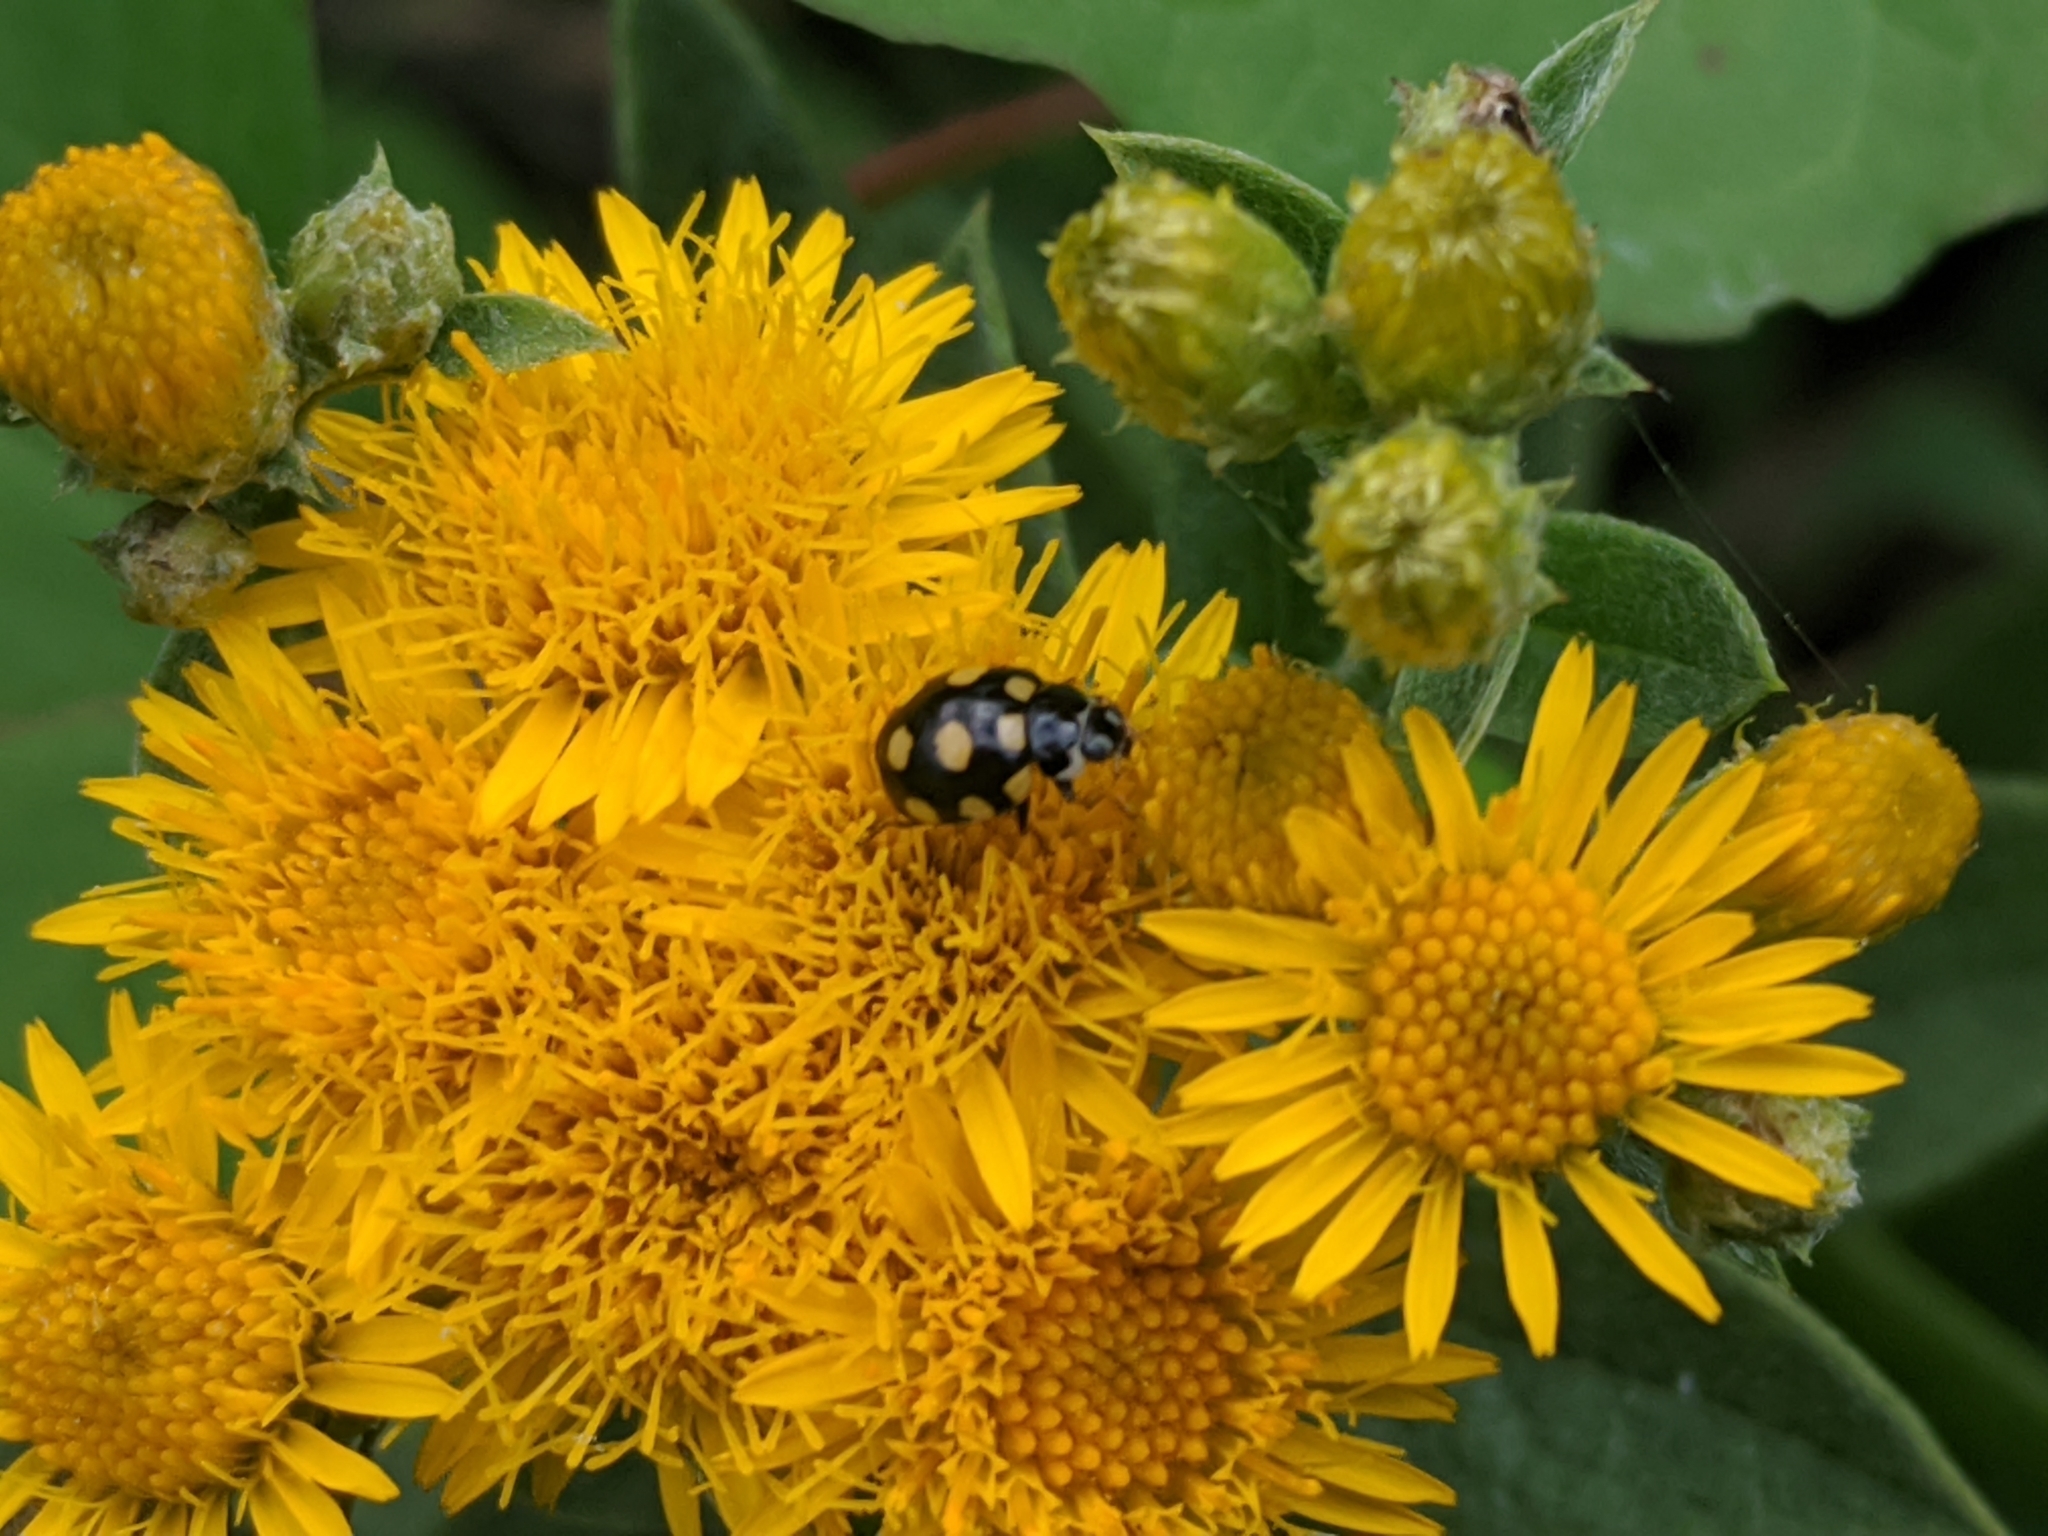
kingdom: Animalia
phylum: Arthropoda
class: Insecta
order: Coleoptera
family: Coccinellidae
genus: Coccinula
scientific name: Coccinula quatuordecimpustulata
